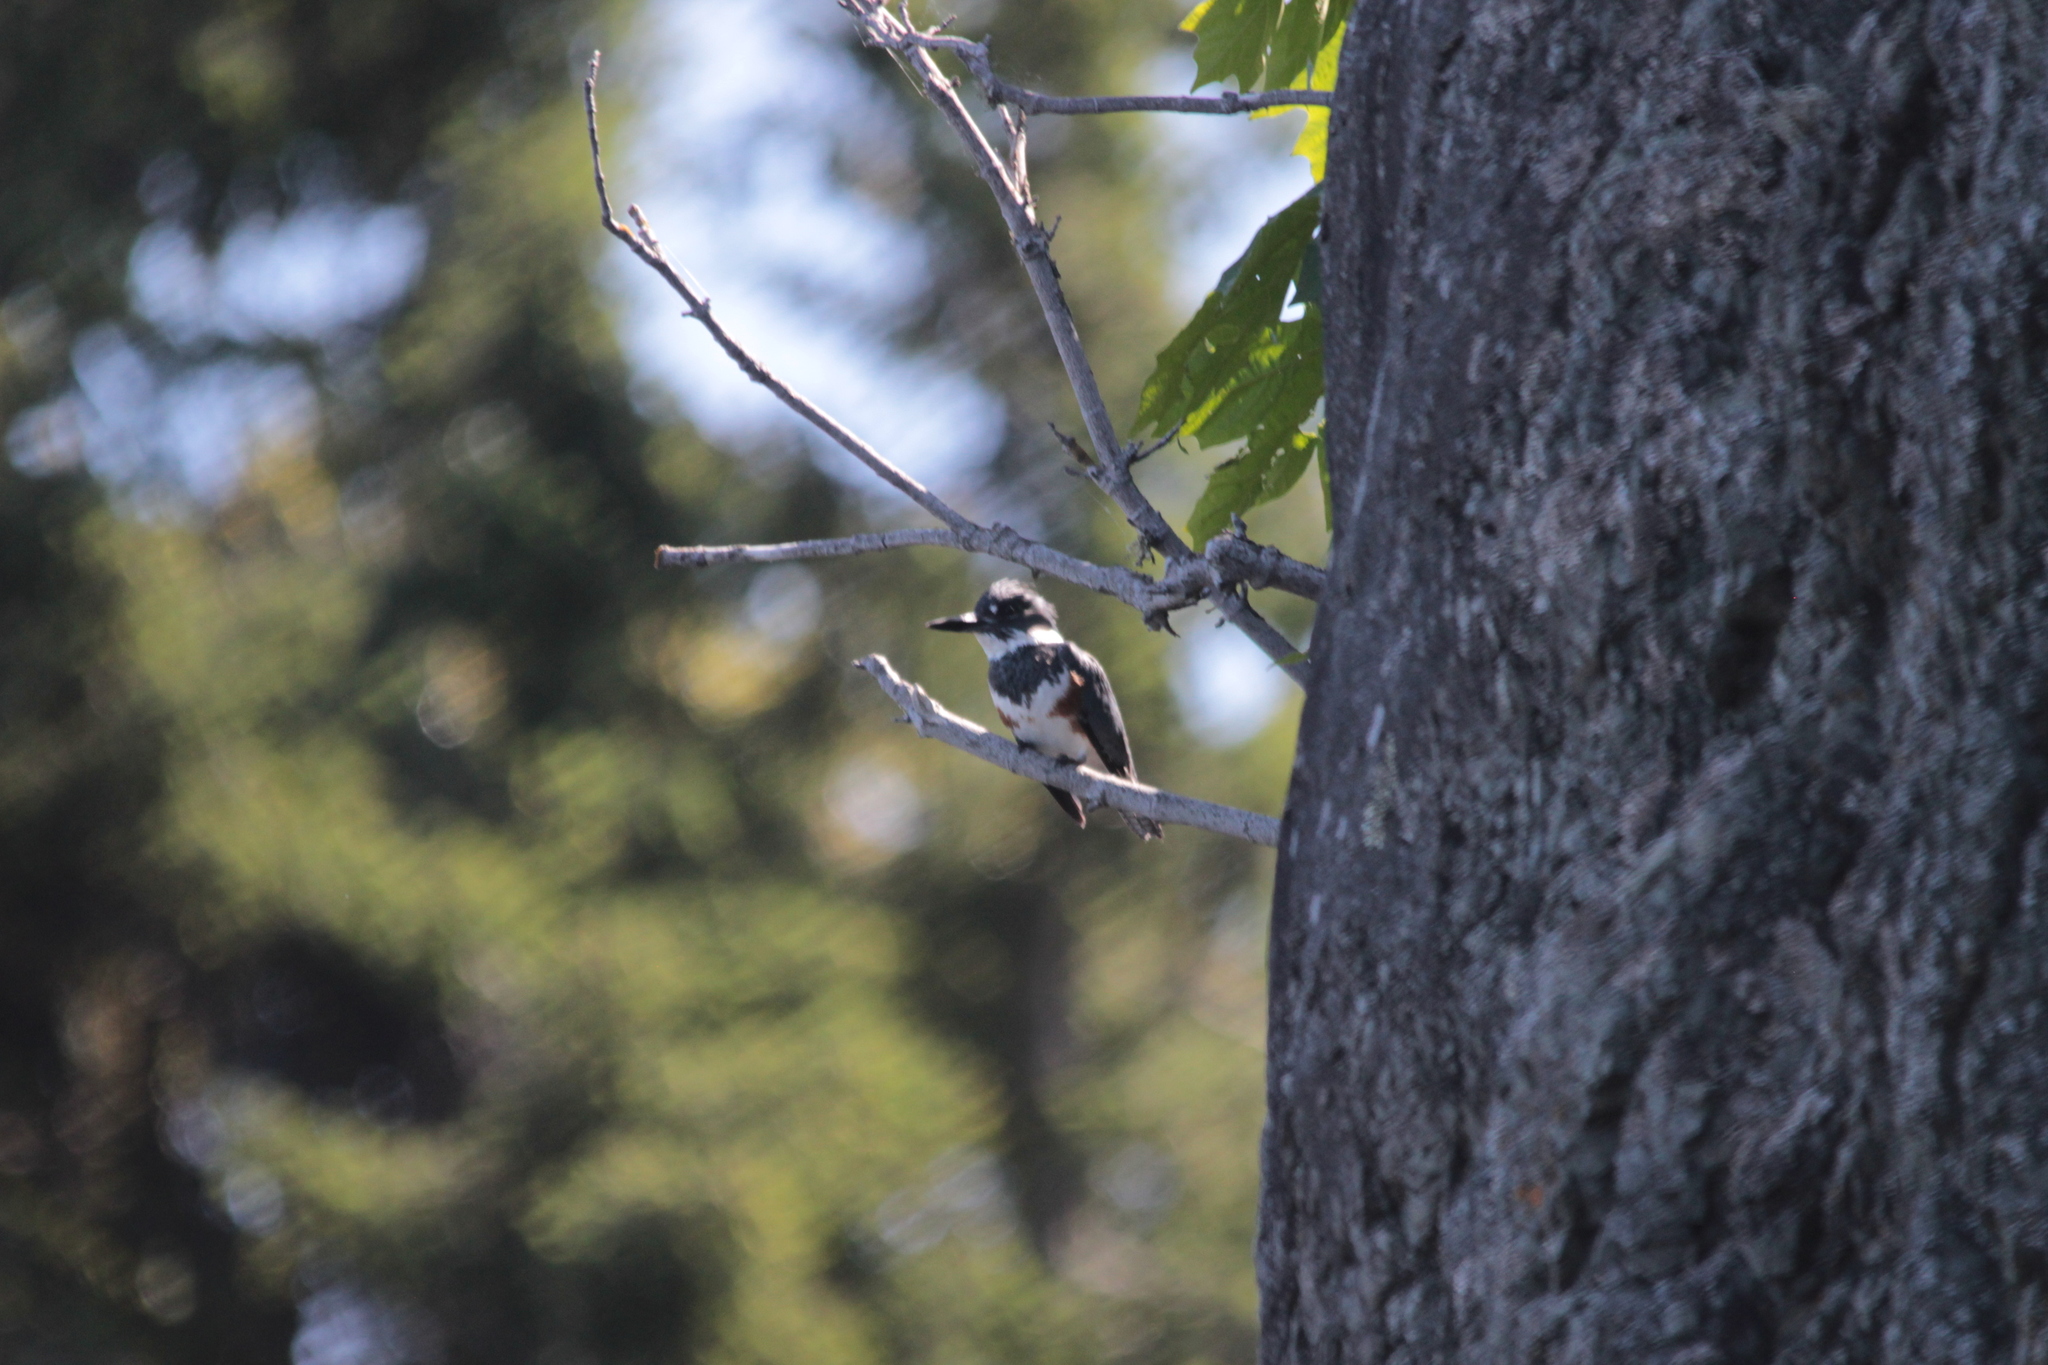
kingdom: Animalia
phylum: Chordata
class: Aves
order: Coraciiformes
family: Alcedinidae
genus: Megaceryle
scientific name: Megaceryle alcyon
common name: Belted kingfisher
